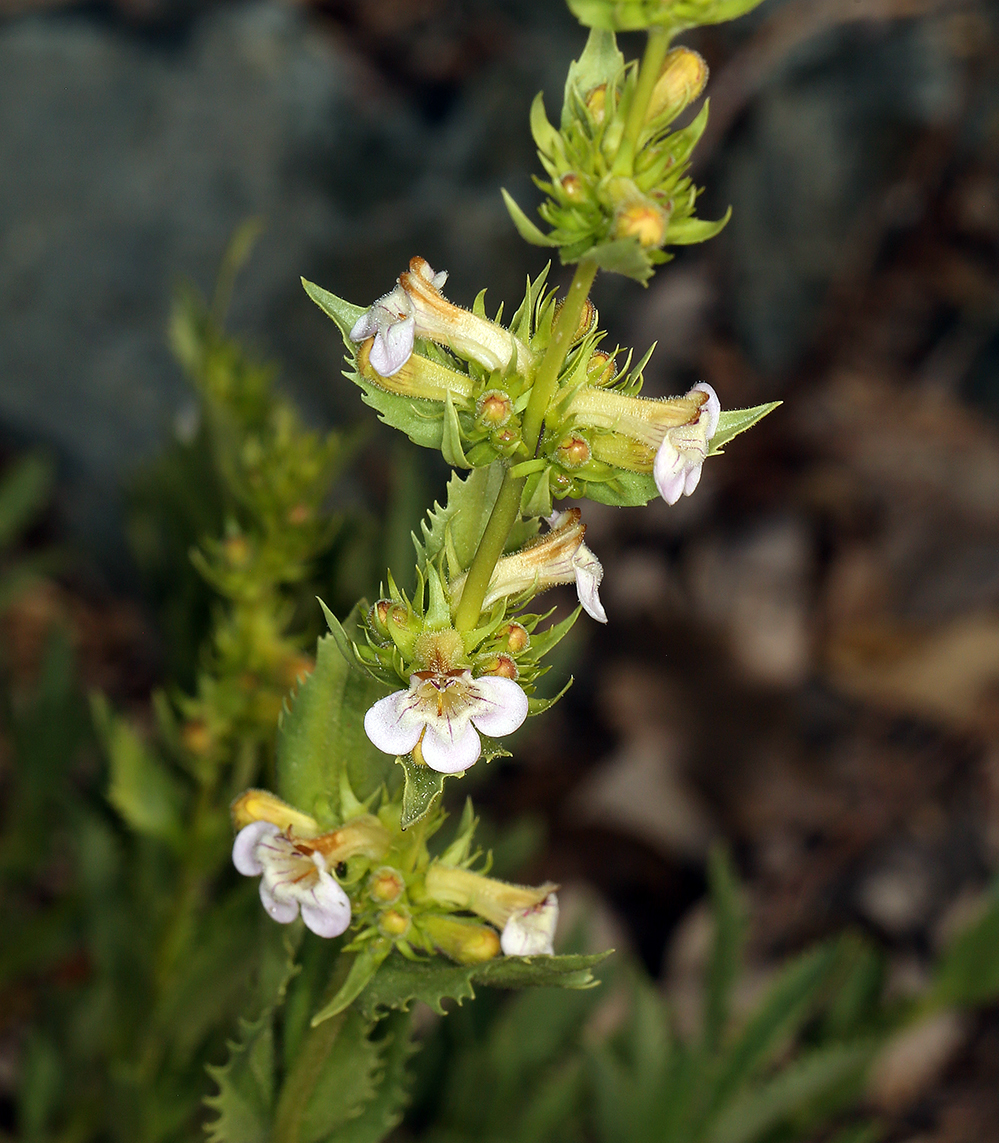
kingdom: Plantae
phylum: Tracheophyta
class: Magnoliopsida
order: Lamiales
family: Plantaginaceae
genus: Penstemon
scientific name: Penstemon deustus
